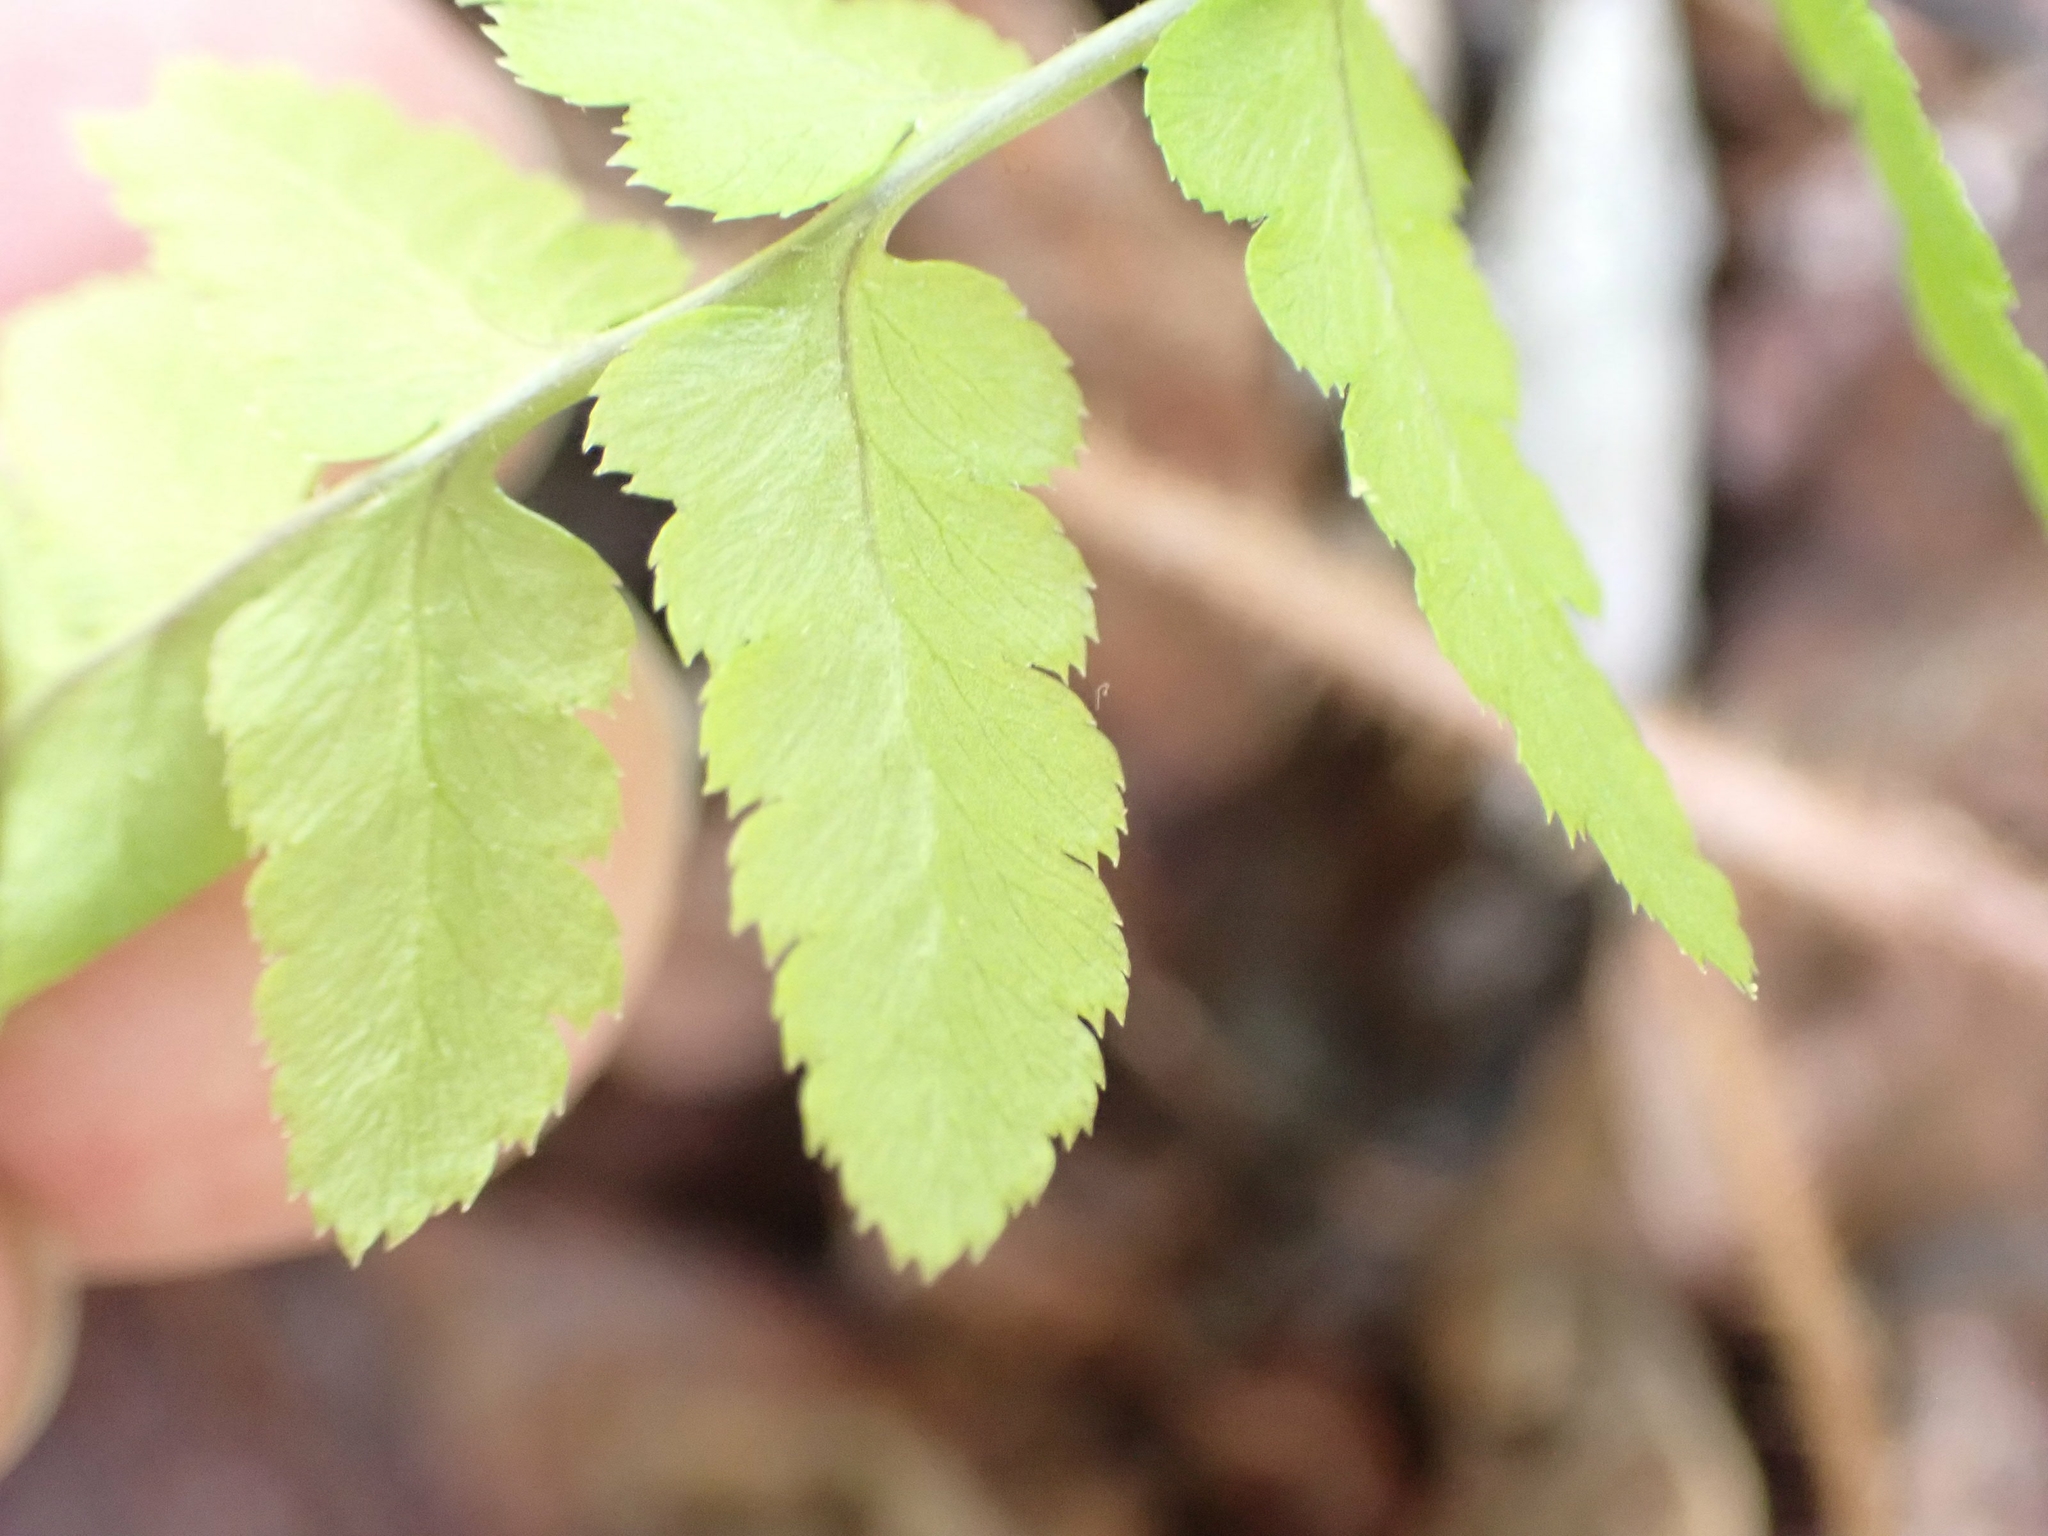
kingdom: Plantae
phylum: Tracheophyta
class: Polypodiopsida
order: Polypodiales
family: Dryopteridaceae
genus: Dryopteris
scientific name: Dryopteris cristata
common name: Crested wood fern
